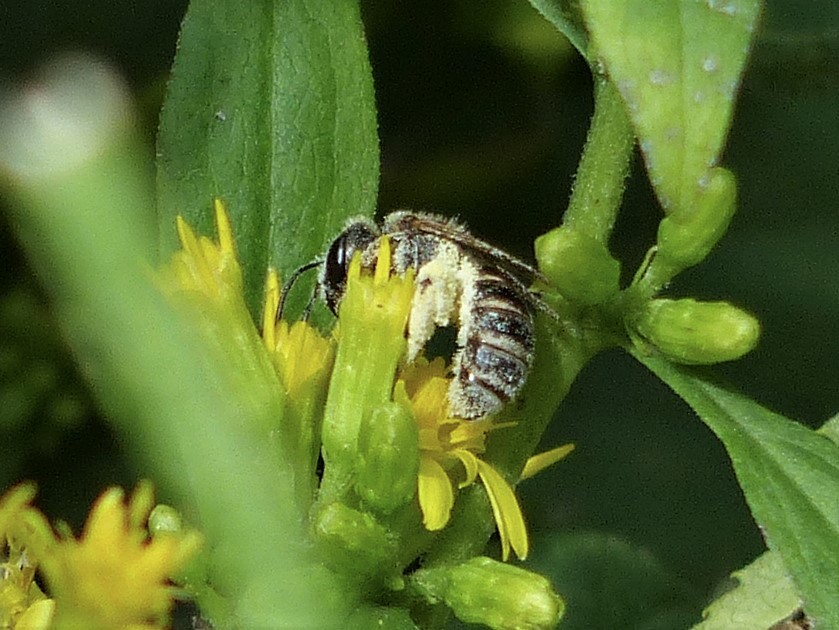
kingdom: Animalia
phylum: Arthropoda
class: Insecta
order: Hymenoptera
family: Halictidae
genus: Halictus
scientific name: Halictus ligatus
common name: Ligated furrow bee
